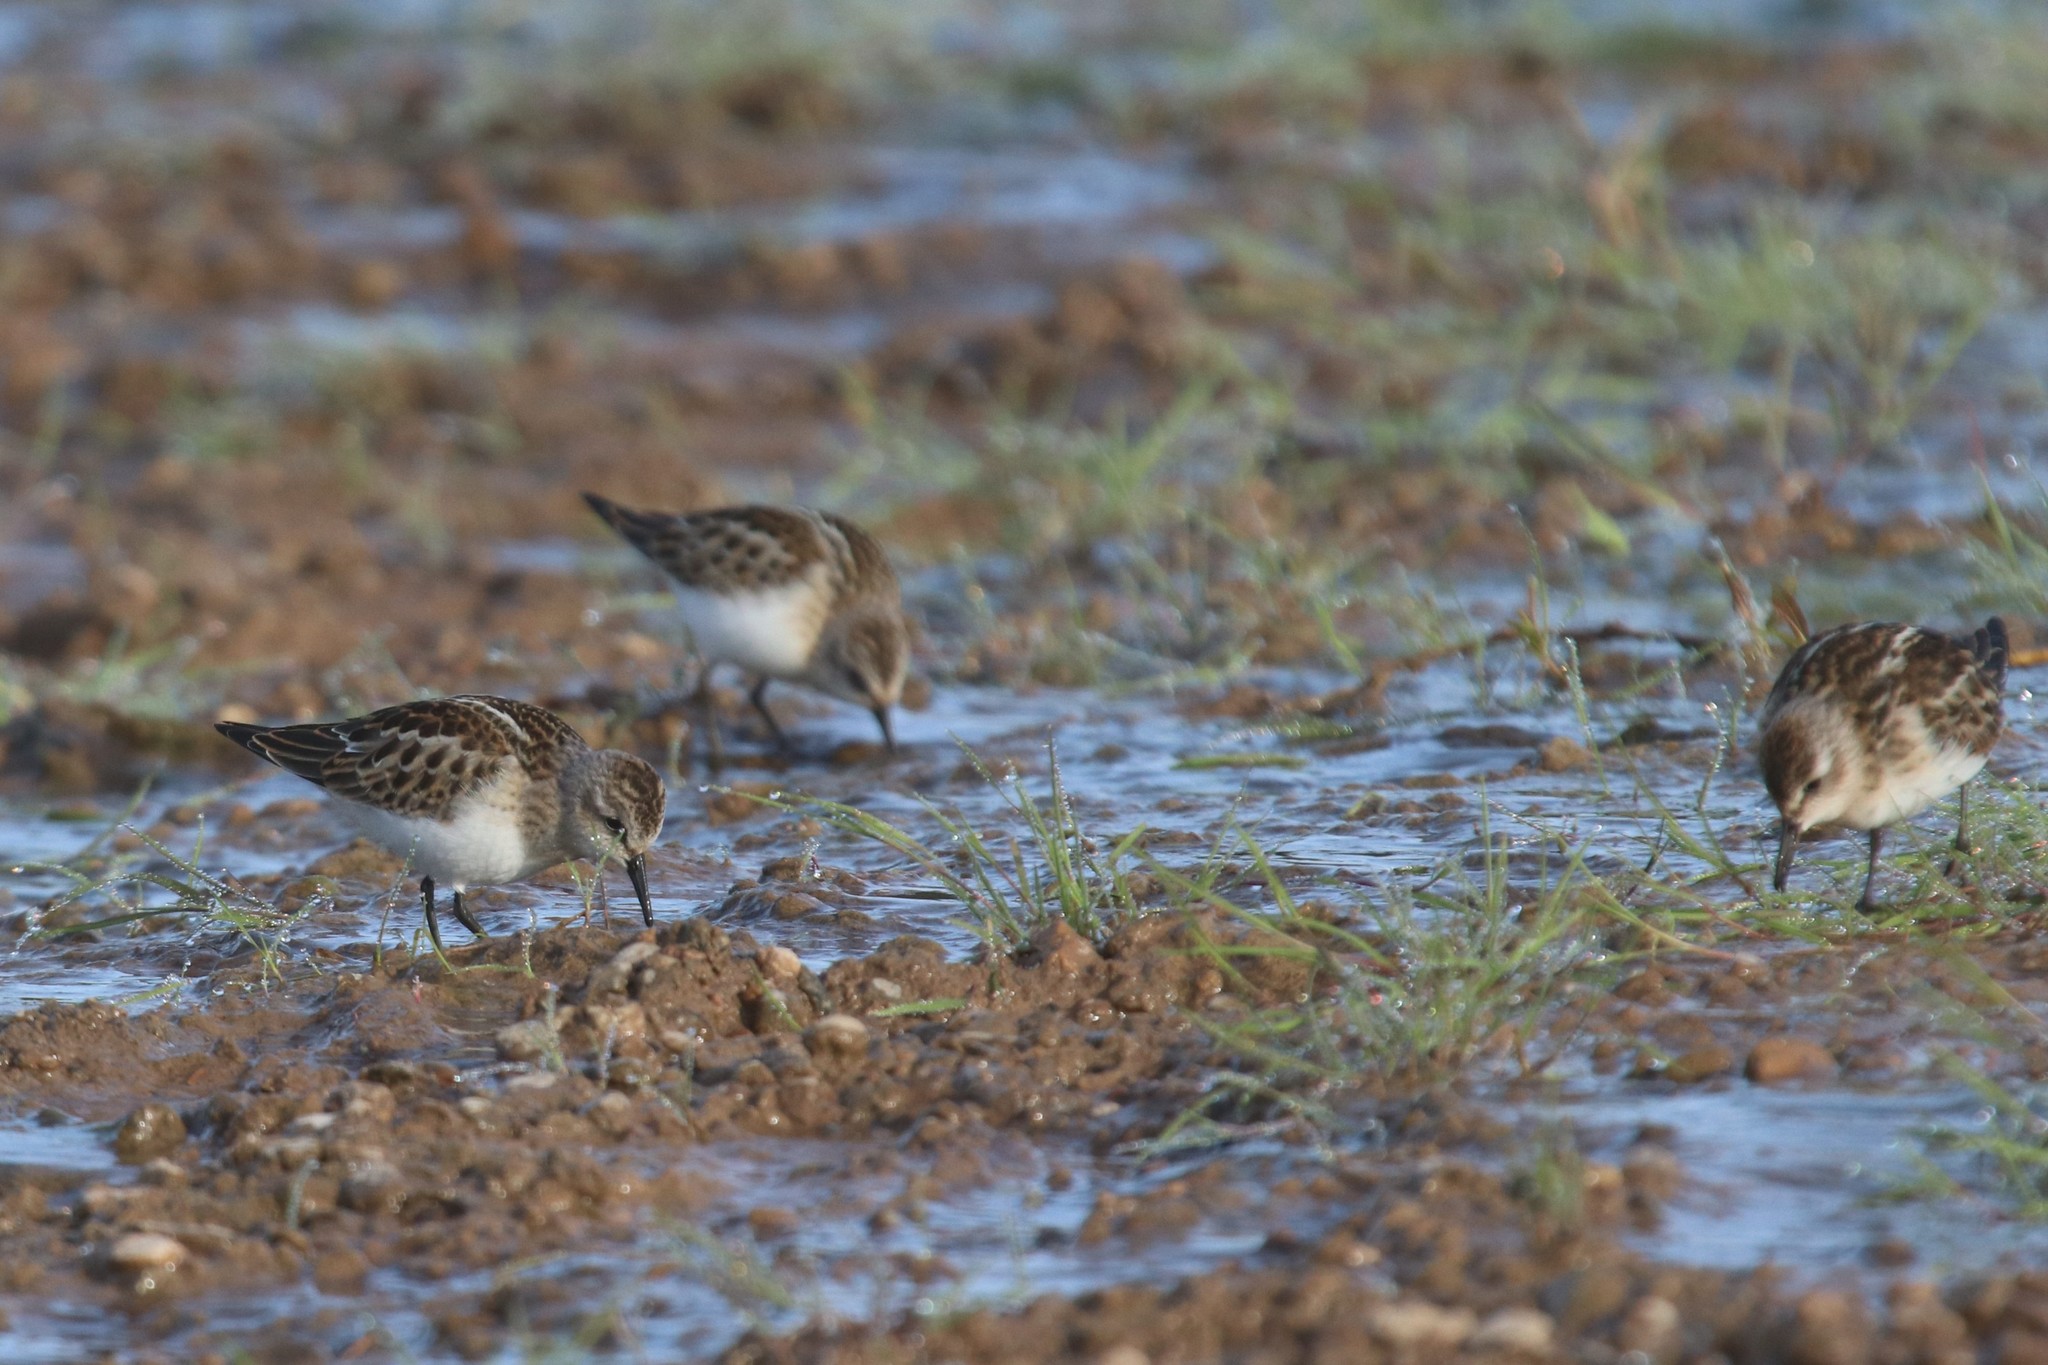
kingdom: Animalia
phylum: Chordata
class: Aves
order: Charadriiformes
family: Scolopacidae
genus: Calidris
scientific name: Calidris minuta
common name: Little stint
